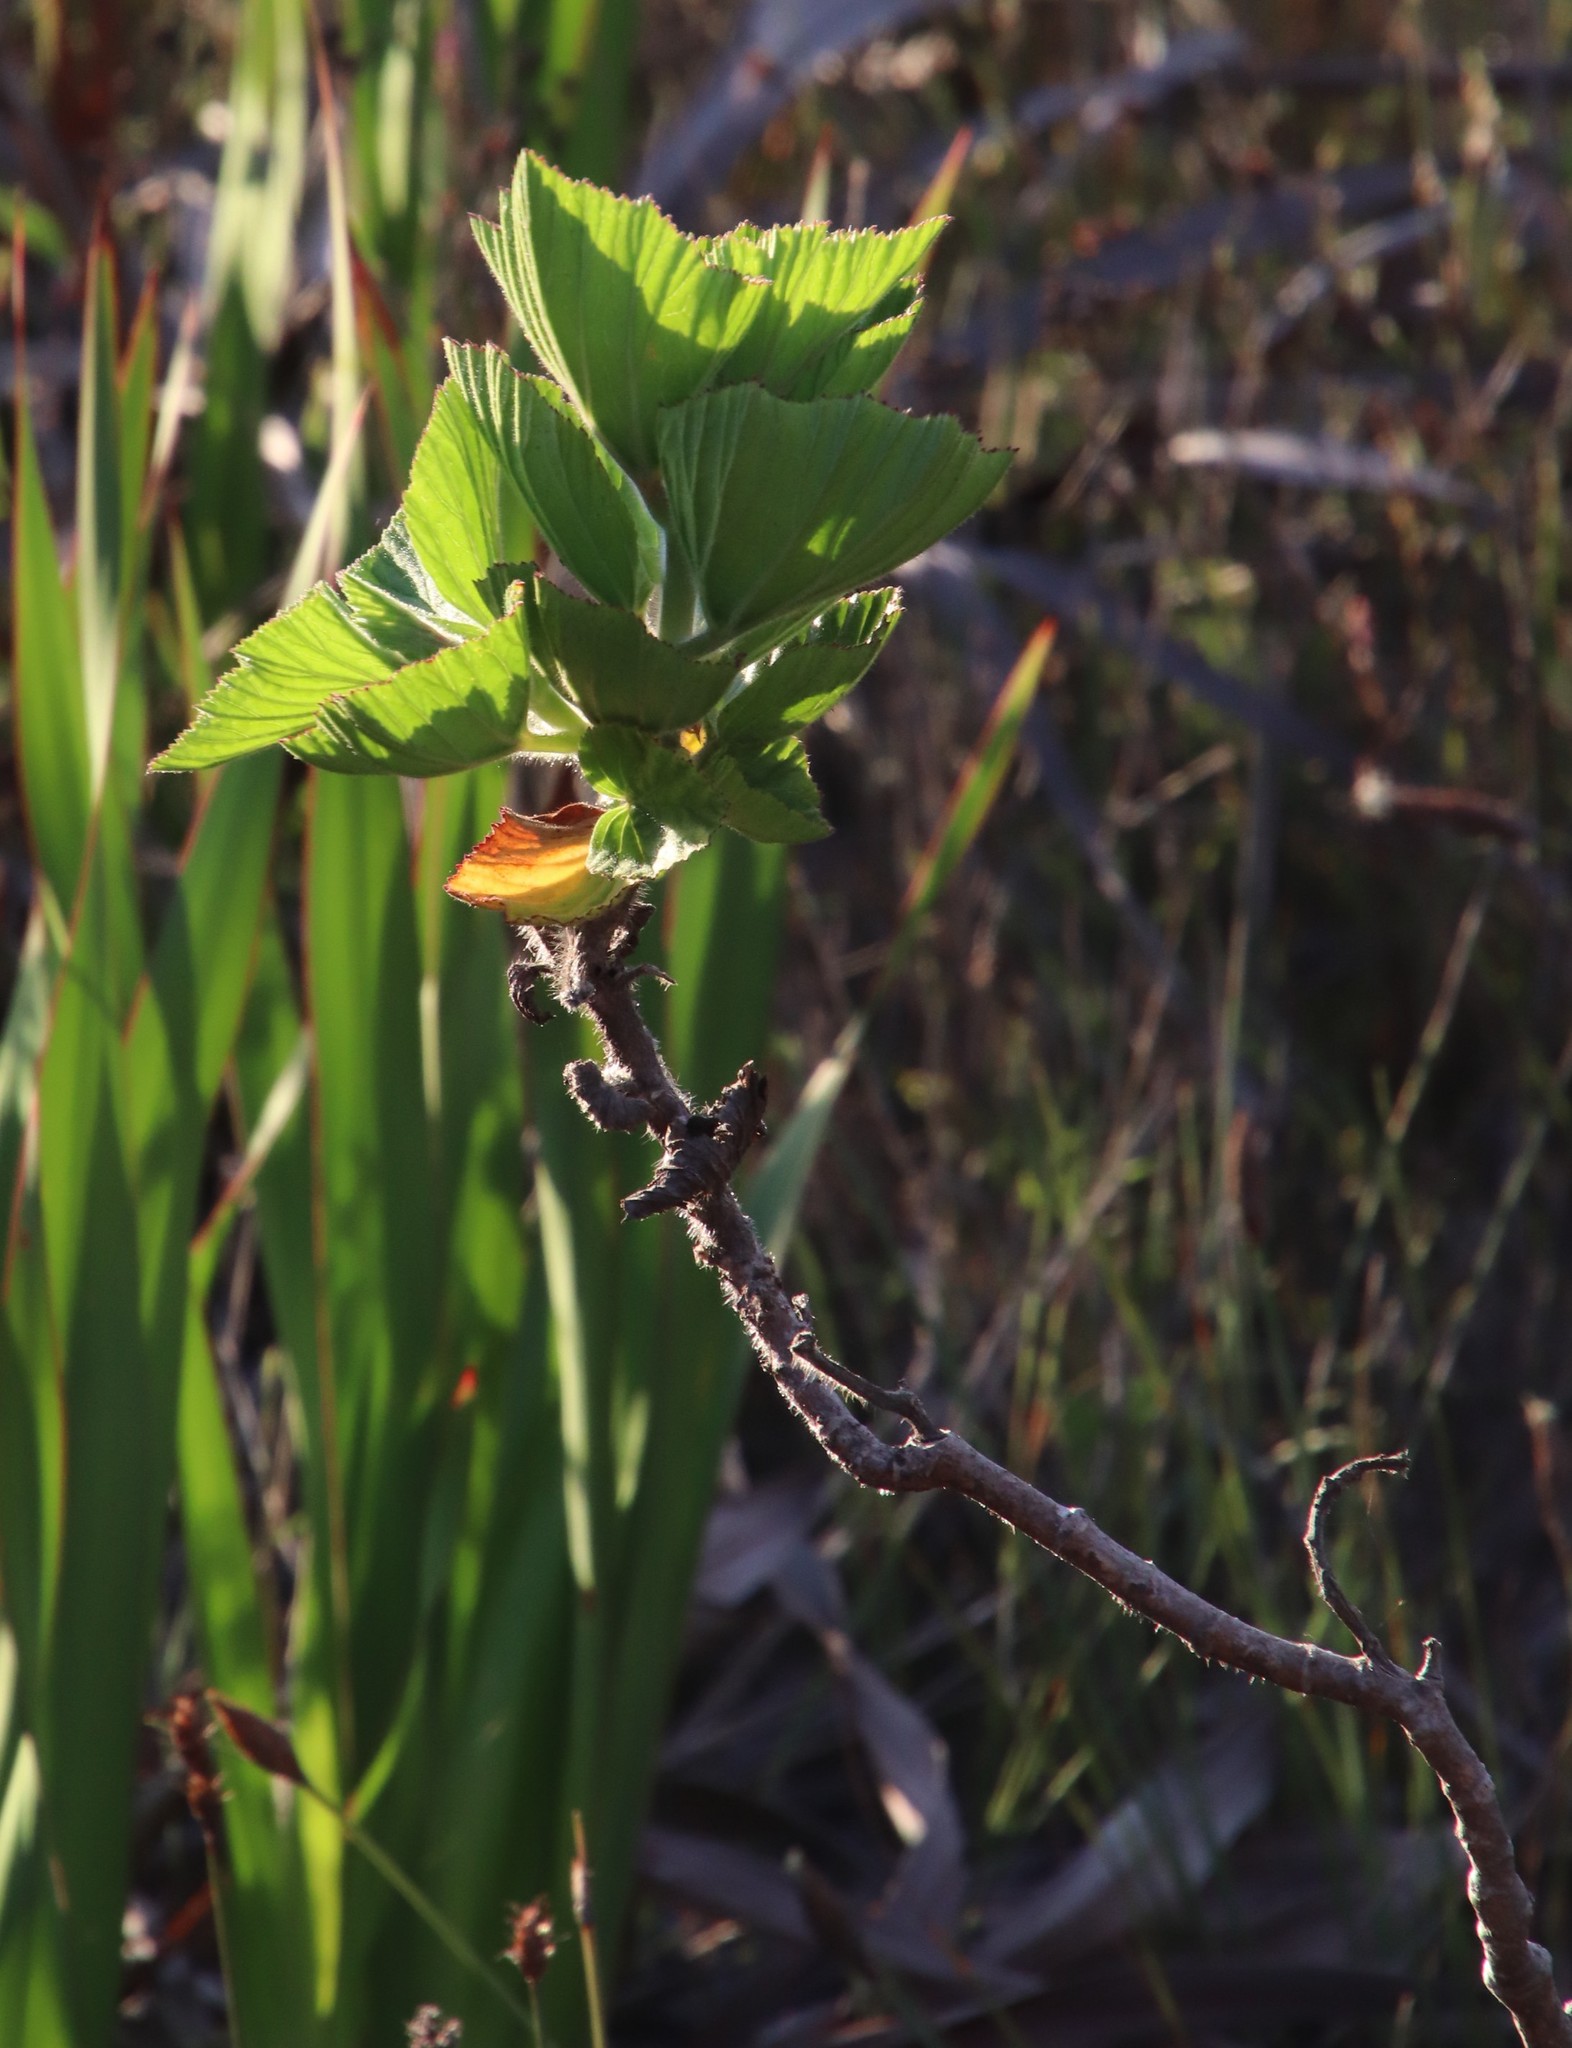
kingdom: Plantae
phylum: Tracheophyta
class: Magnoliopsida
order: Geraniales
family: Geraniaceae
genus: Pelargonium
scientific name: Pelargonium cucullatum
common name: Tree pelargonium
